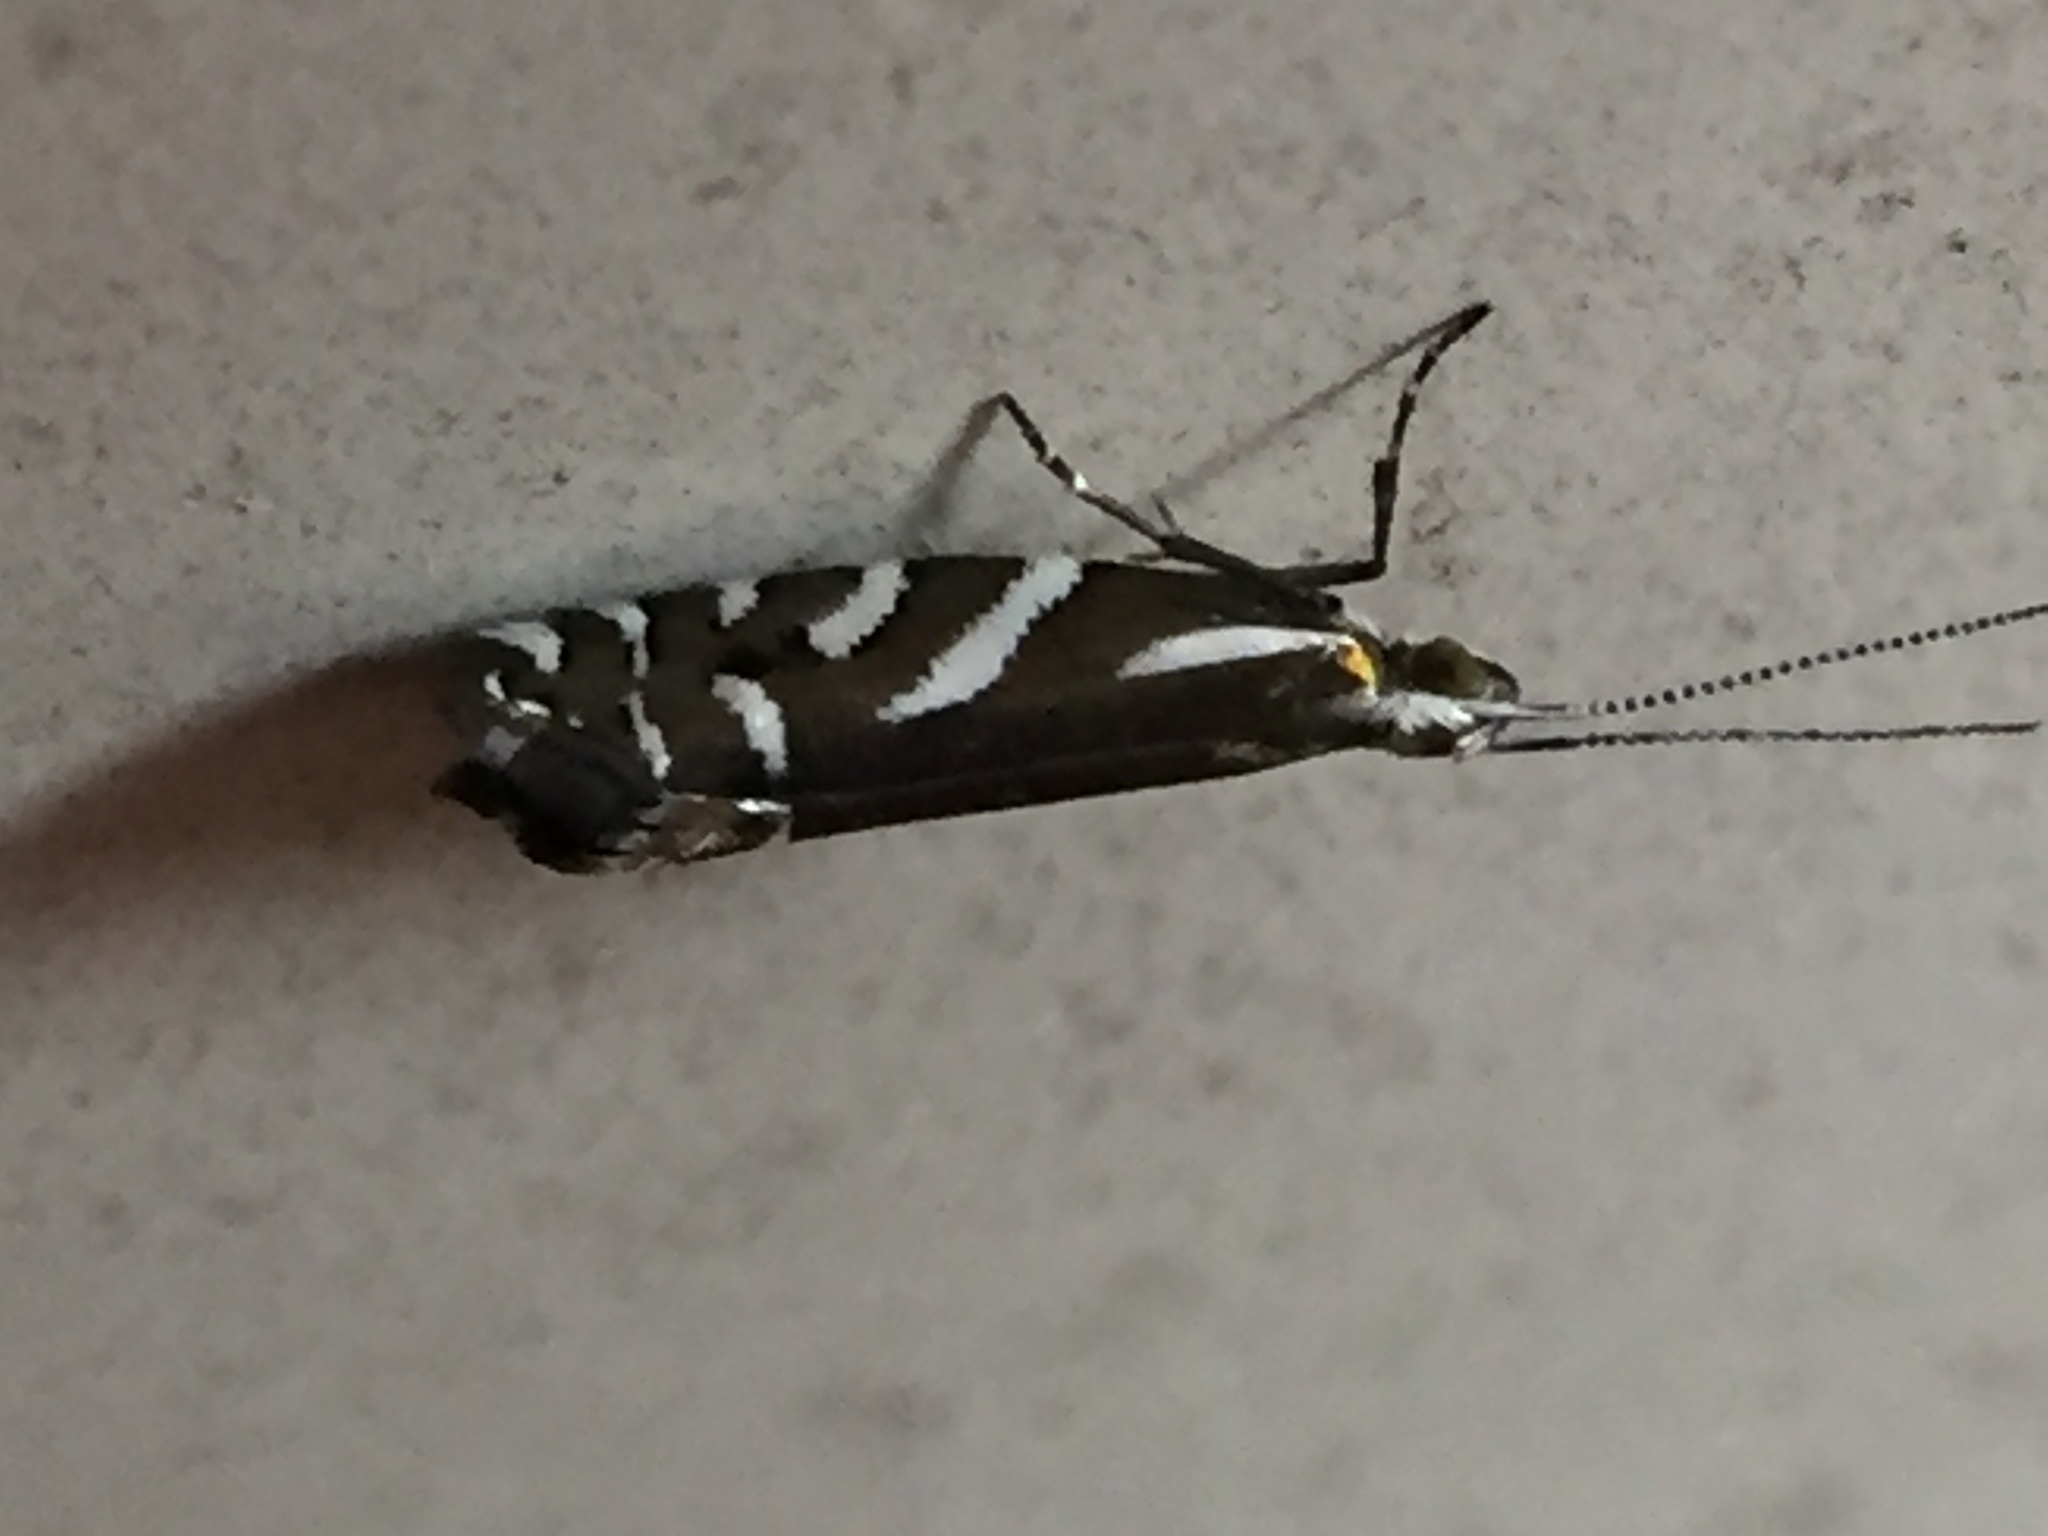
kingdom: Animalia
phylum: Arthropoda
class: Insecta
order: Lepidoptera
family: Glyphipterigidae
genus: Chrysorthenches
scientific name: Chrysorthenches glypharcha
